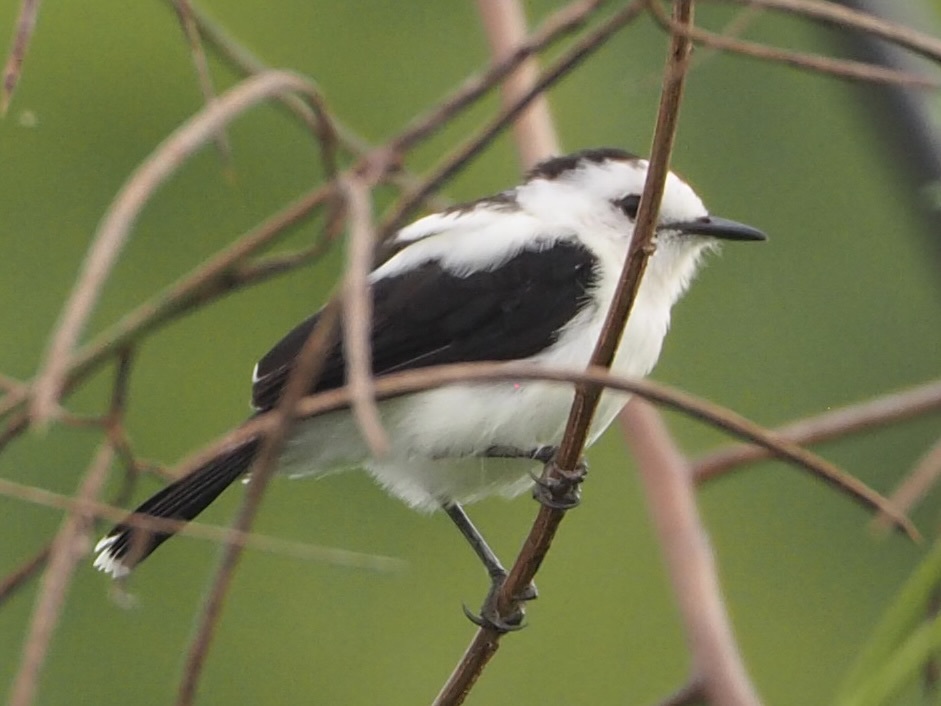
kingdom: Animalia
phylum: Chordata
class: Aves
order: Passeriformes
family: Tyrannidae
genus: Fluvicola
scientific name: Fluvicola pica
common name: Pied water-tyrant
